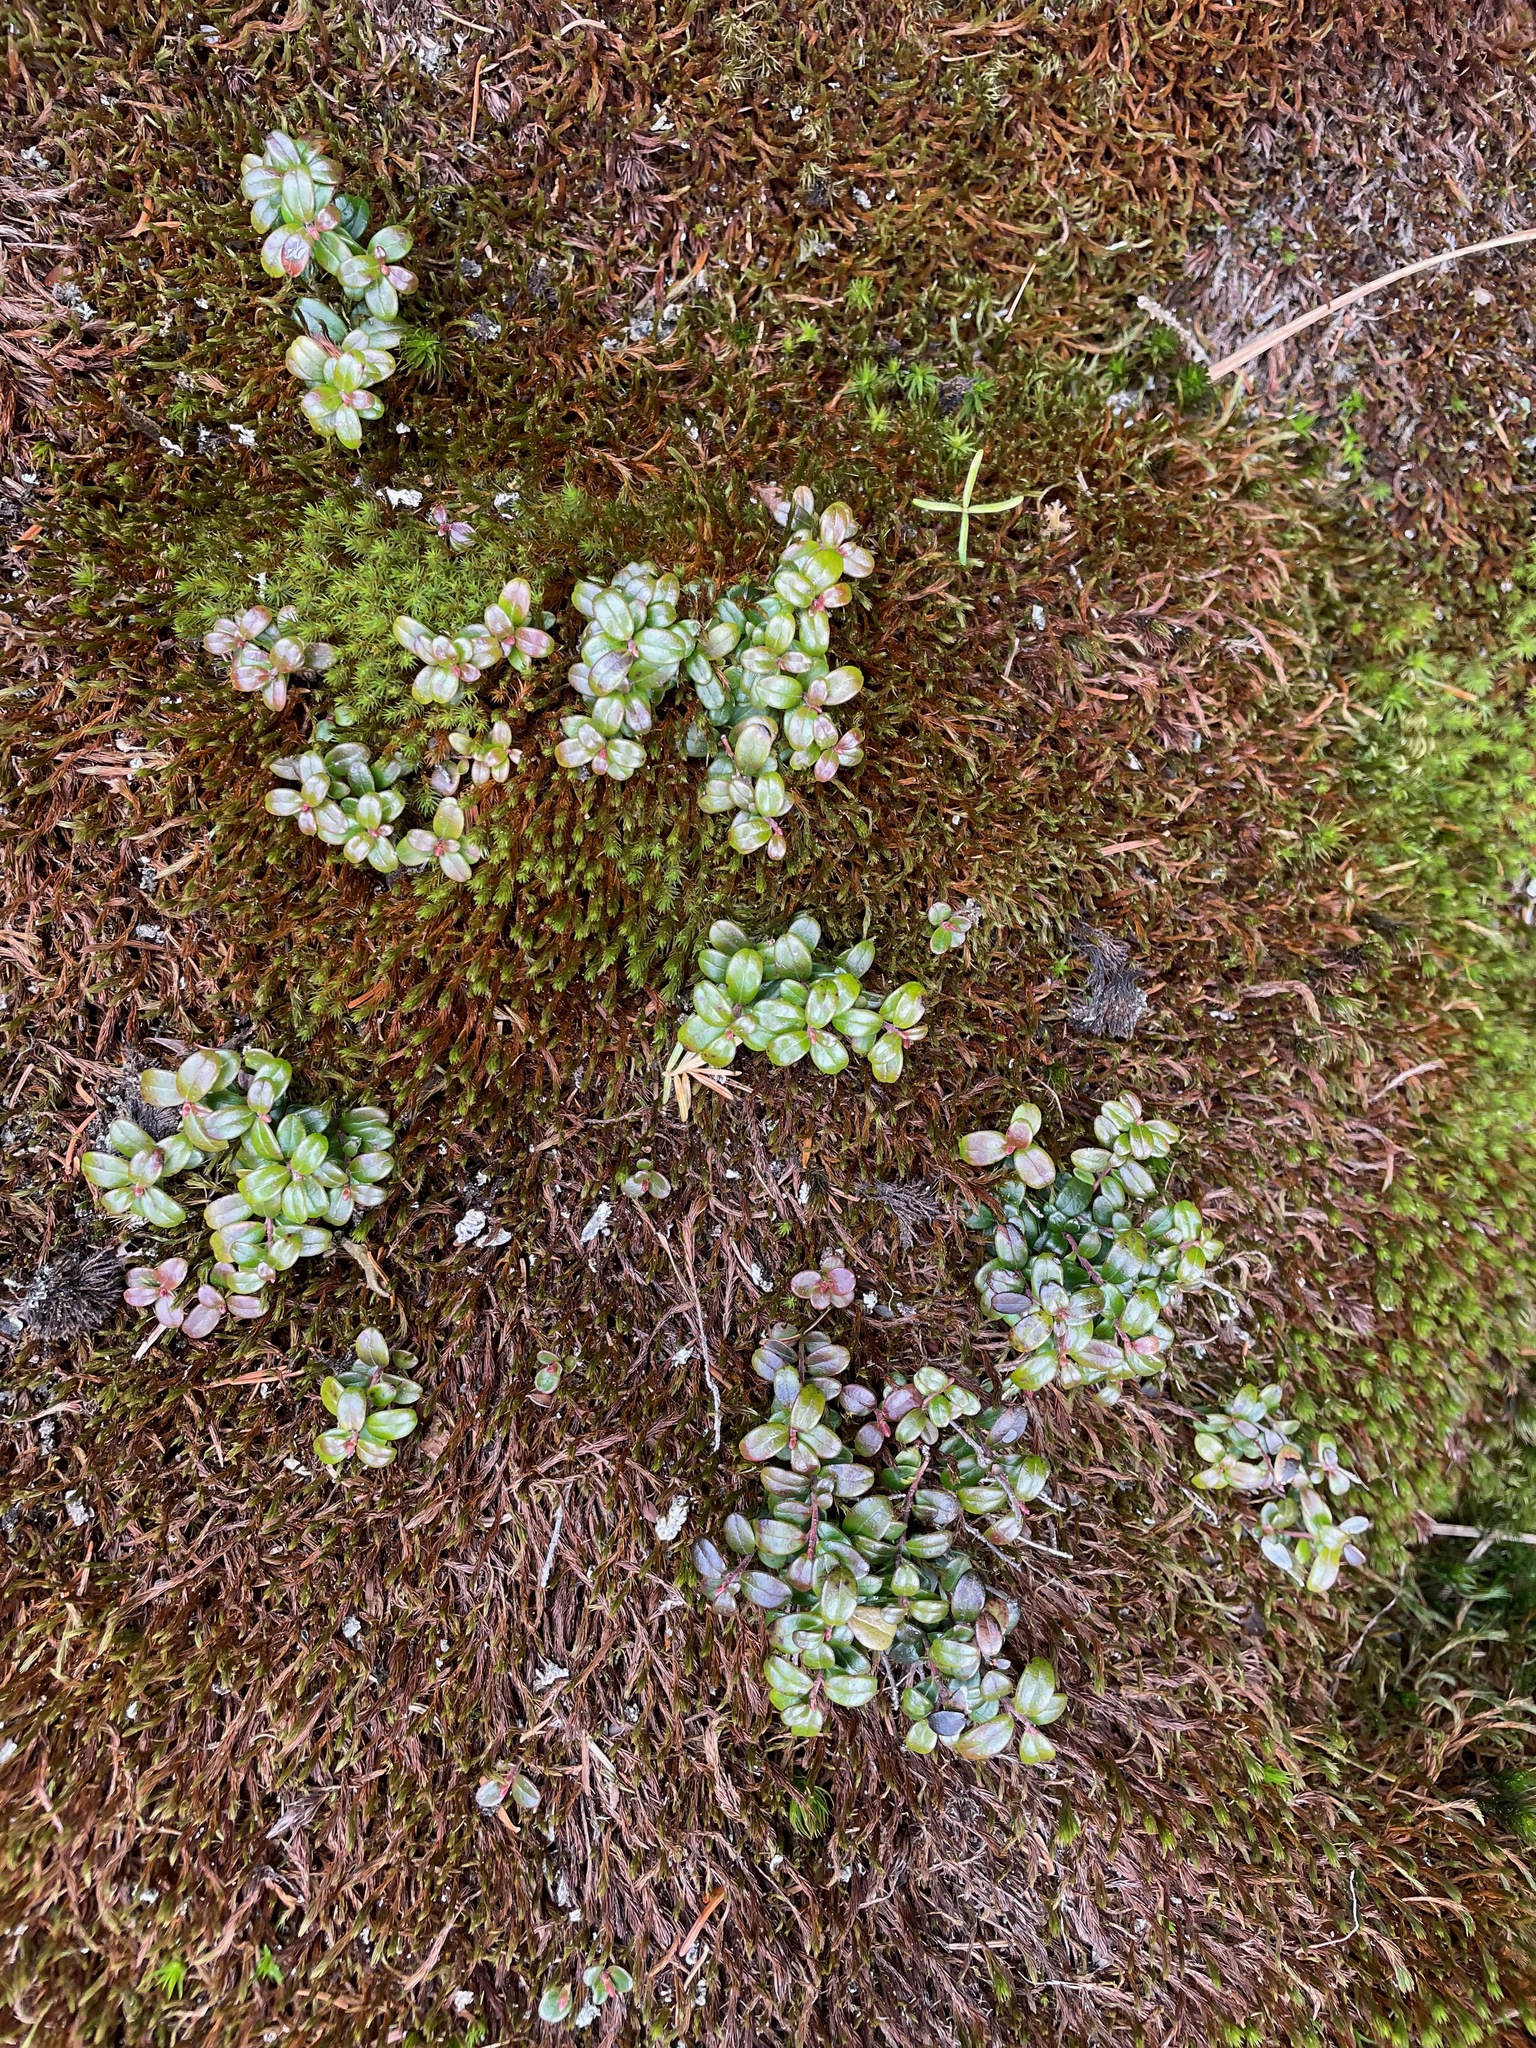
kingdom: Plantae
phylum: Tracheophyta
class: Magnoliopsida
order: Ericales
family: Ericaceae
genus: Vaccinium
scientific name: Vaccinium vitis-idaea
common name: Cowberry
